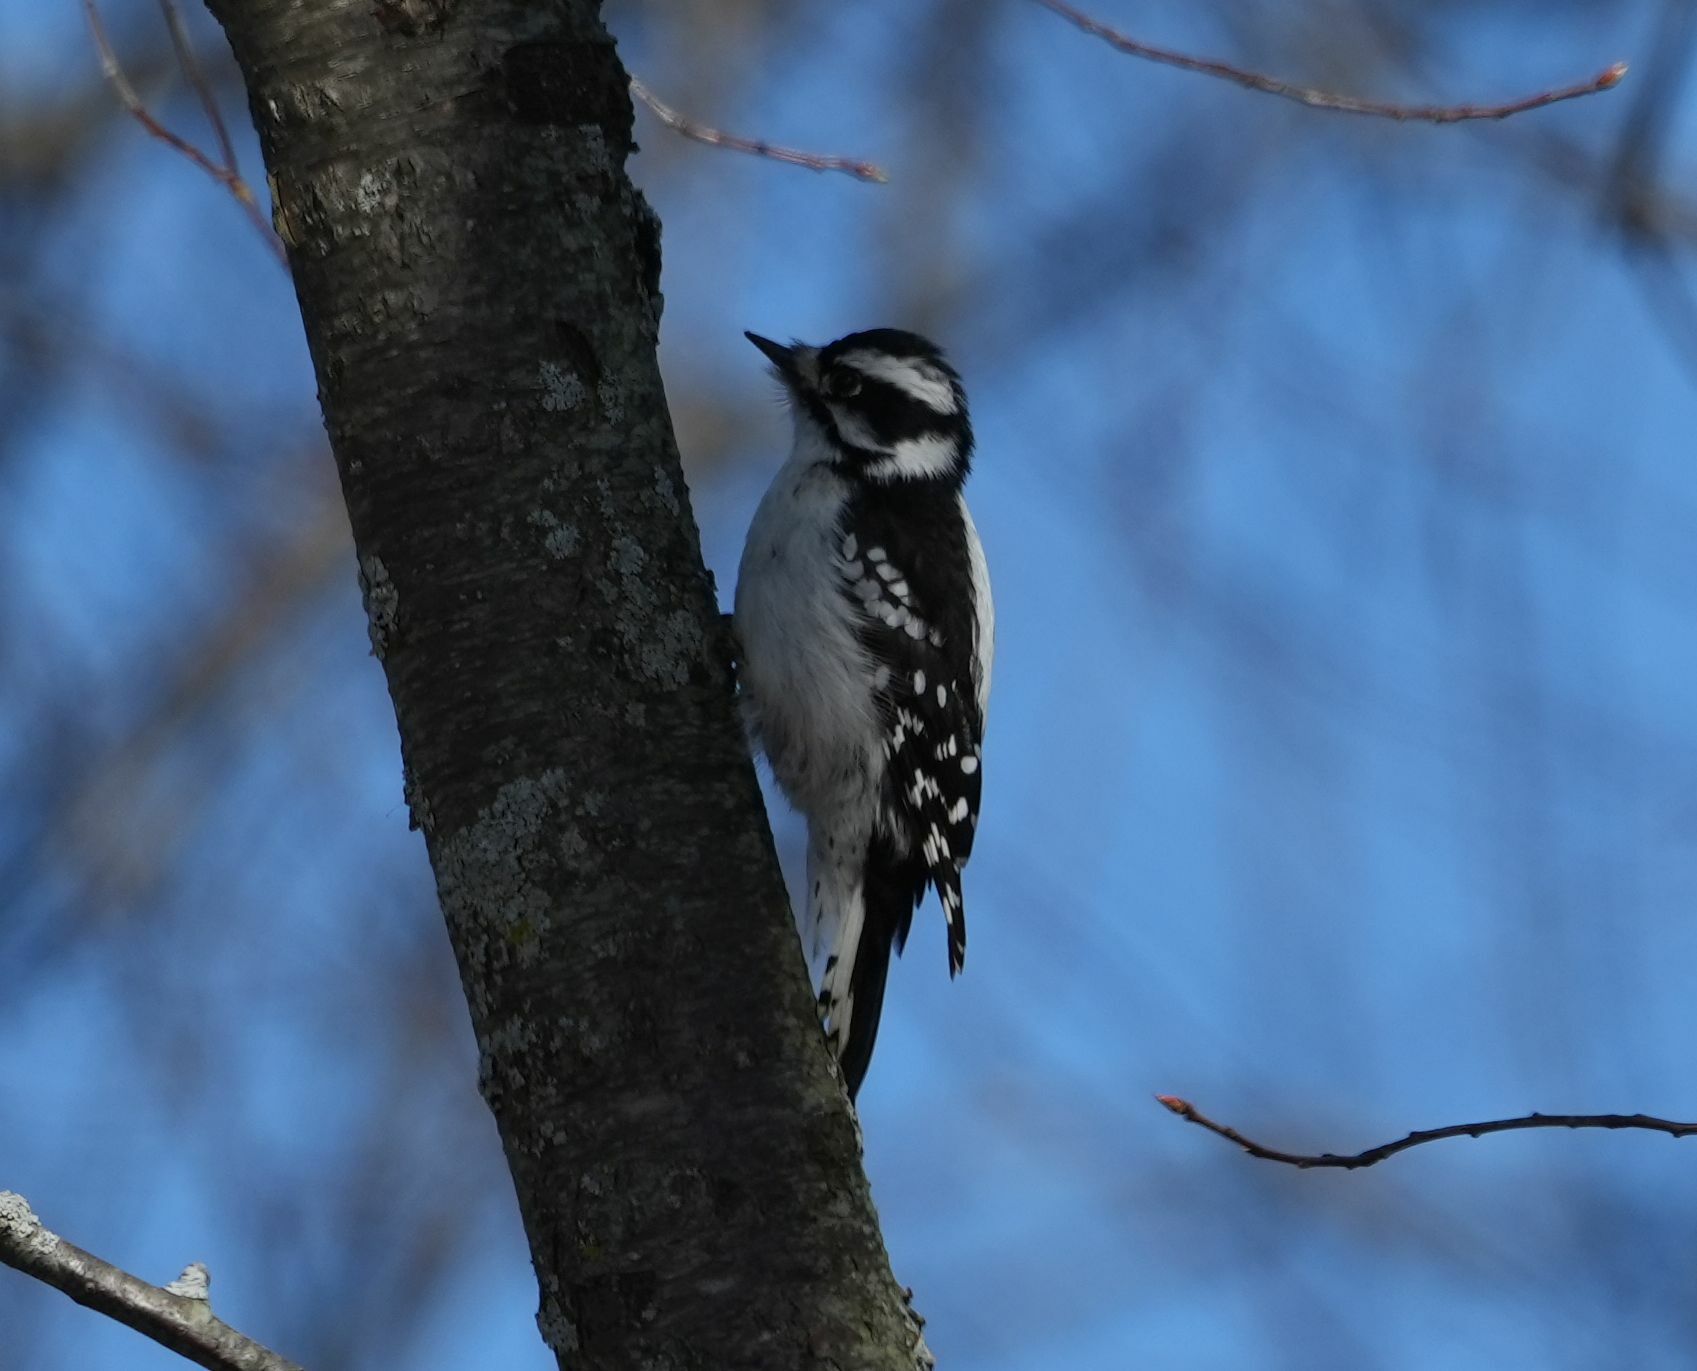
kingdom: Animalia
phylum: Chordata
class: Aves
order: Piciformes
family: Picidae
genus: Dryobates
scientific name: Dryobates pubescens
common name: Downy woodpecker
